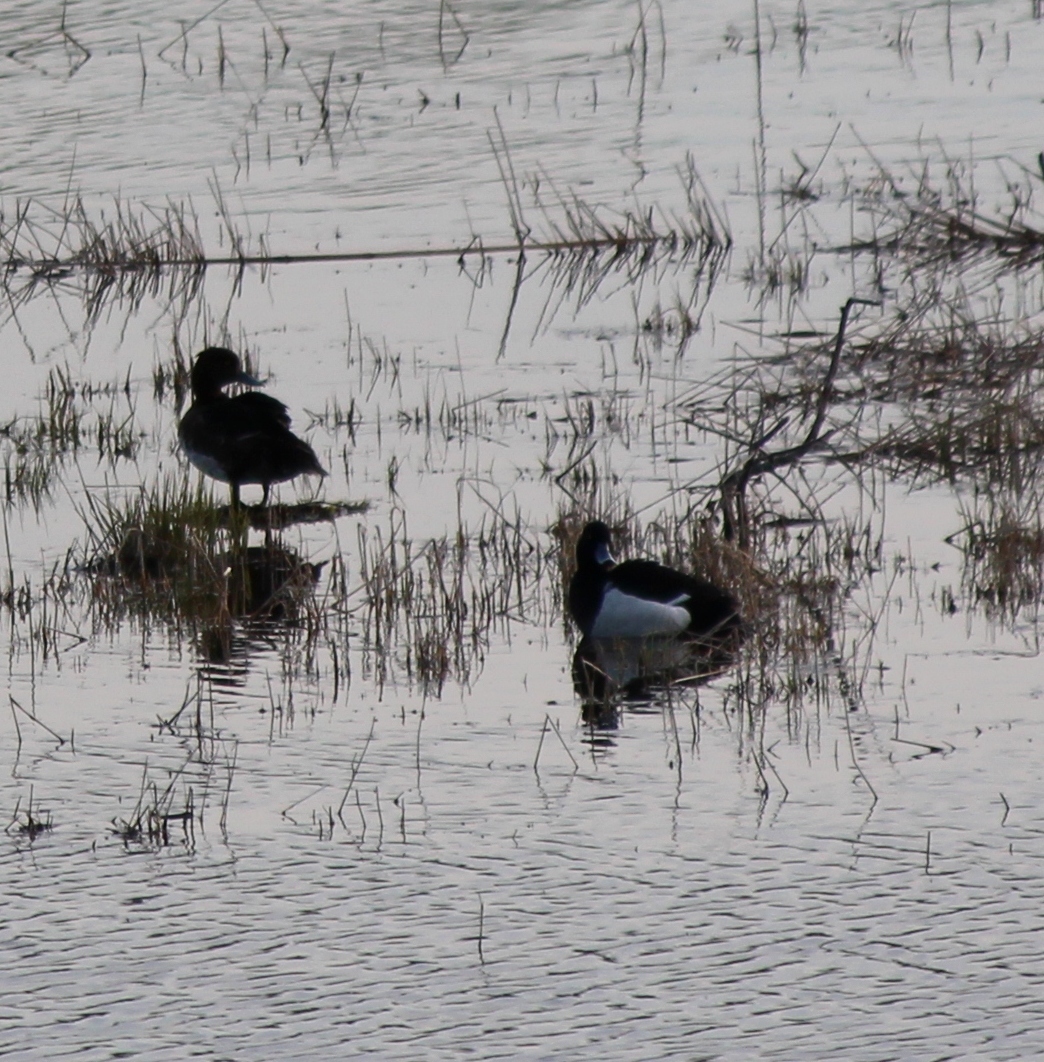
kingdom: Animalia
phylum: Chordata
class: Aves
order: Anseriformes
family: Anatidae
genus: Aythya
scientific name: Aythya fuligula
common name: Tufted duck
